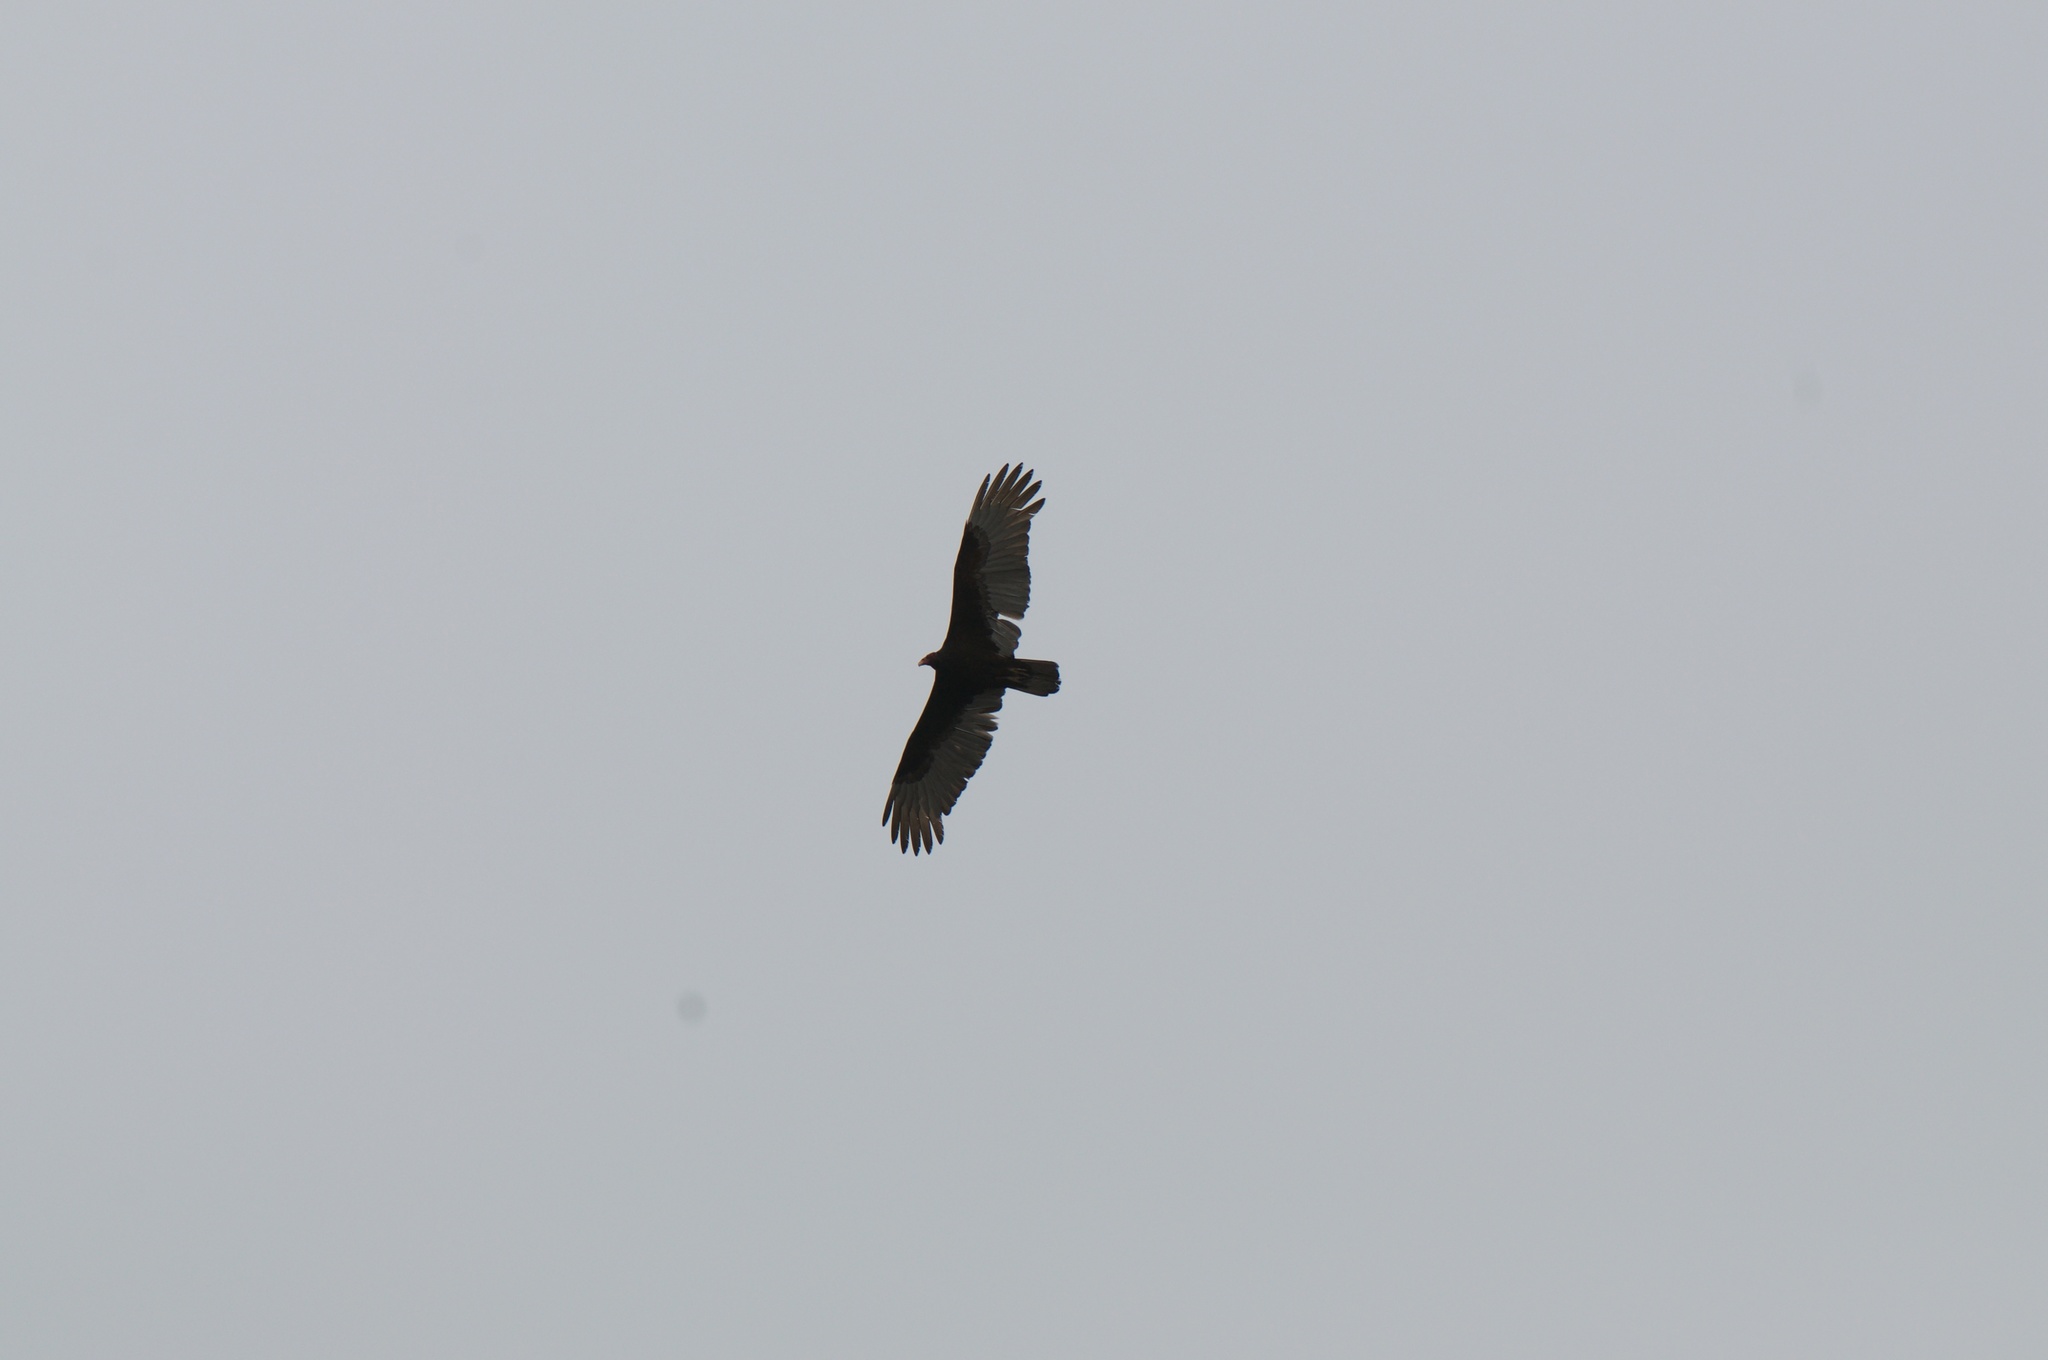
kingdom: Animalia
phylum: Chordata
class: Aves
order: Accipitriformes
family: Cathartidae
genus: Cathartes
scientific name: Cathartes aura
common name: Turkey vulture
